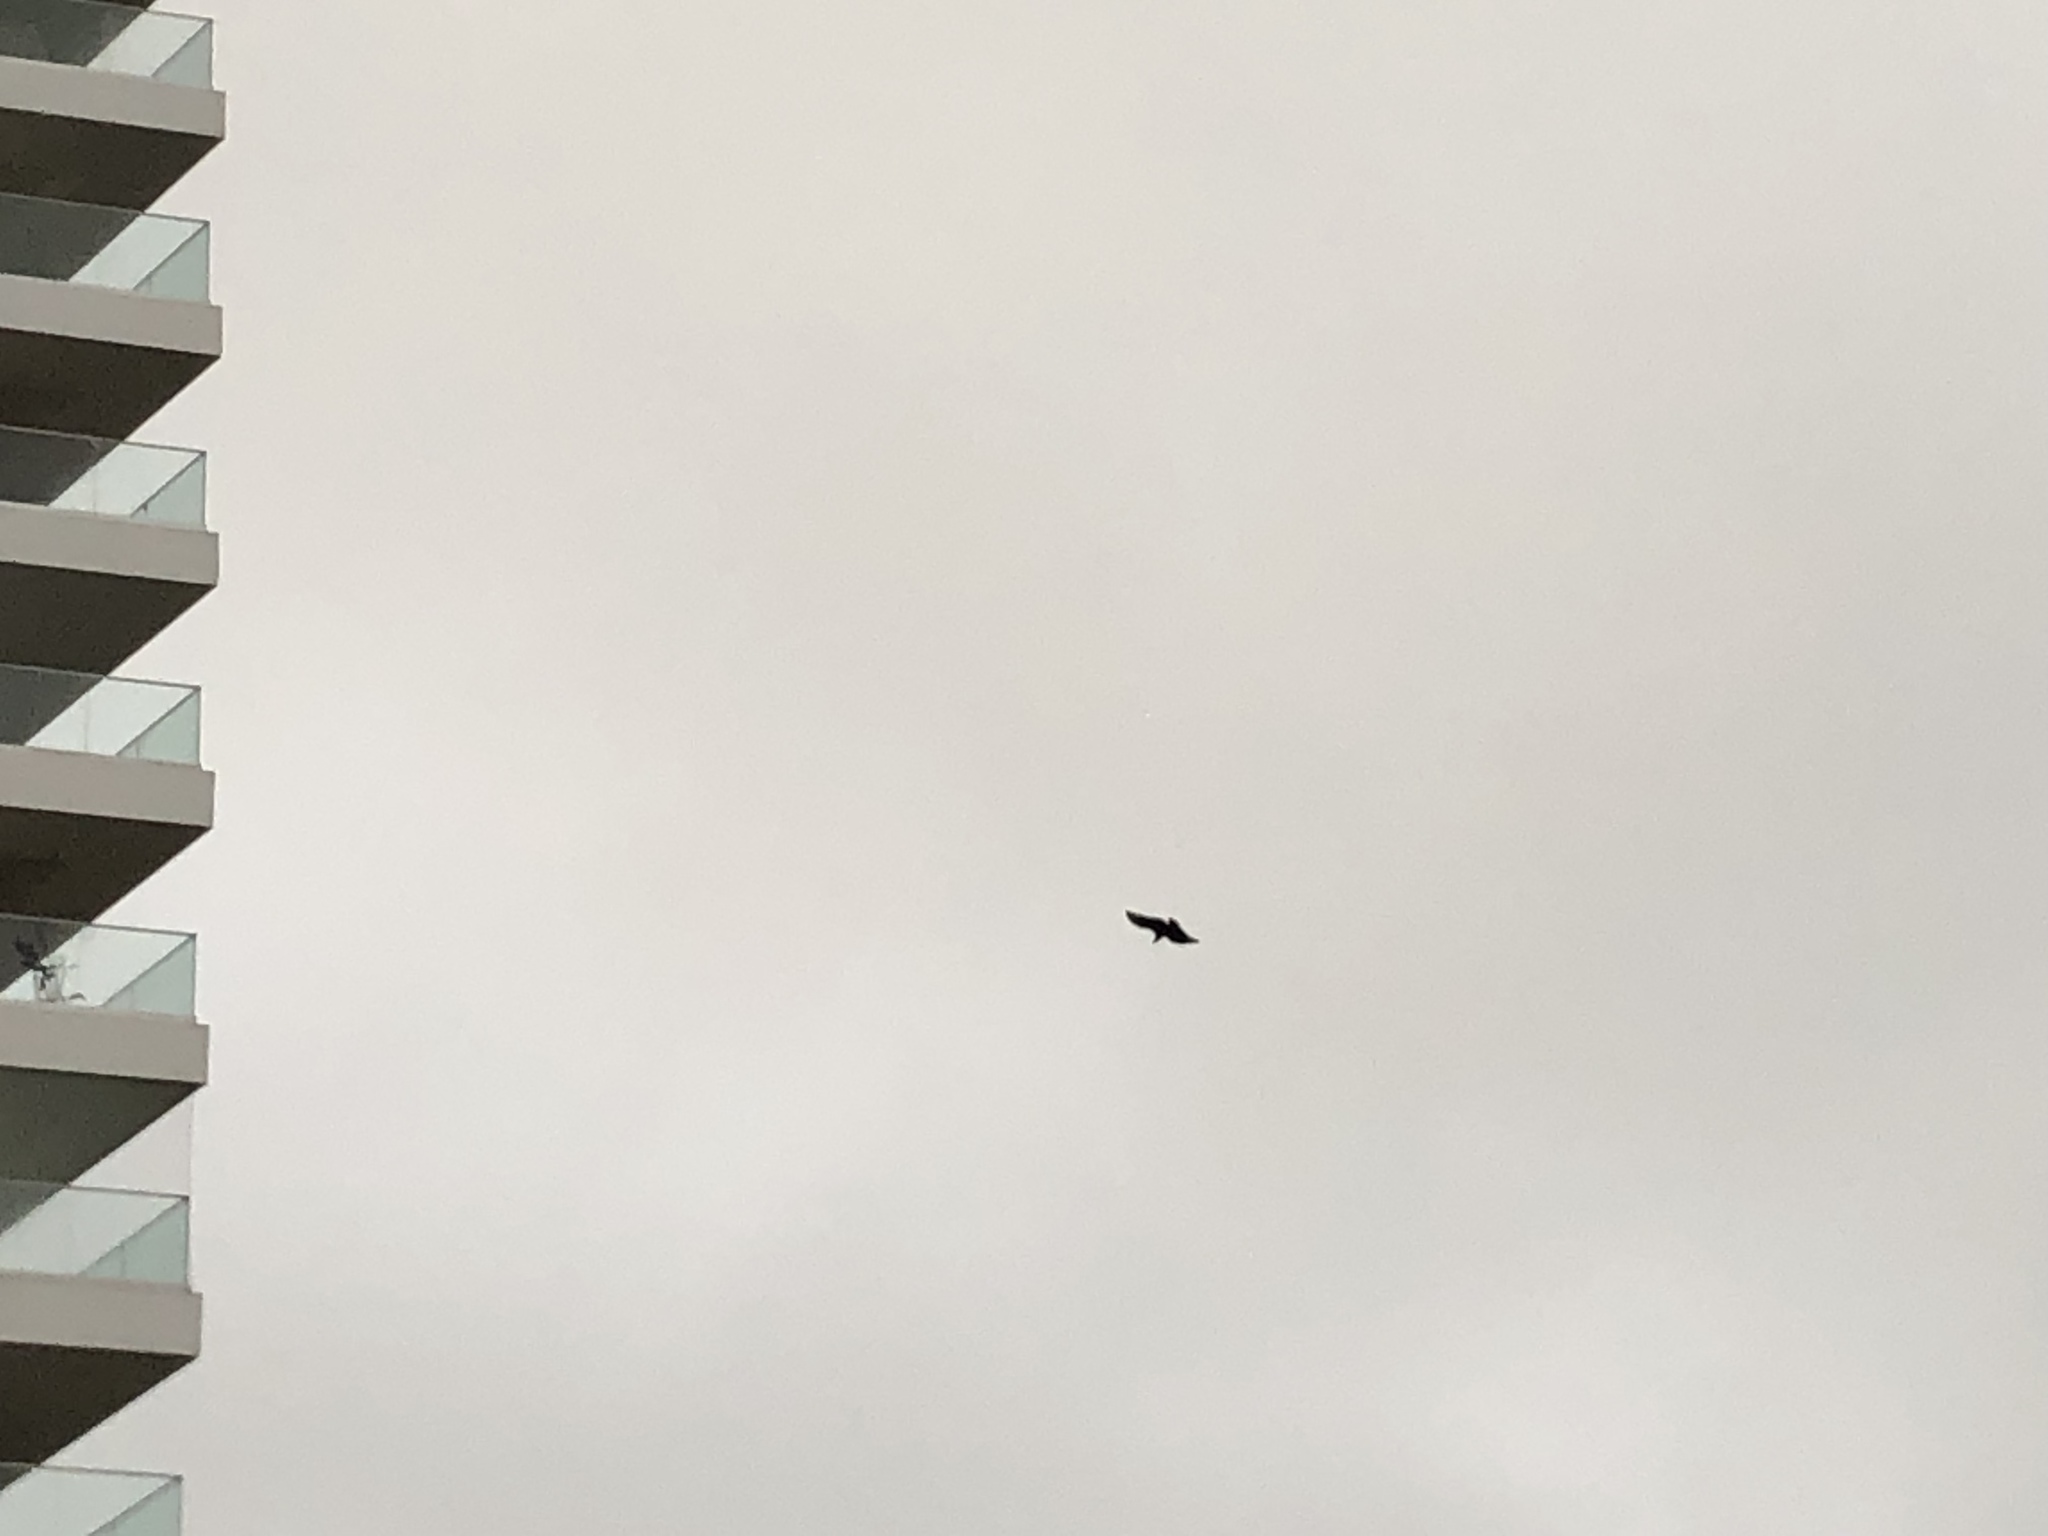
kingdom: Animalia
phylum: Chordata
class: Aves
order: Accipitriformes
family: Cathartidae
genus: Coragyps
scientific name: Coragyps atratus
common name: Black vulture
